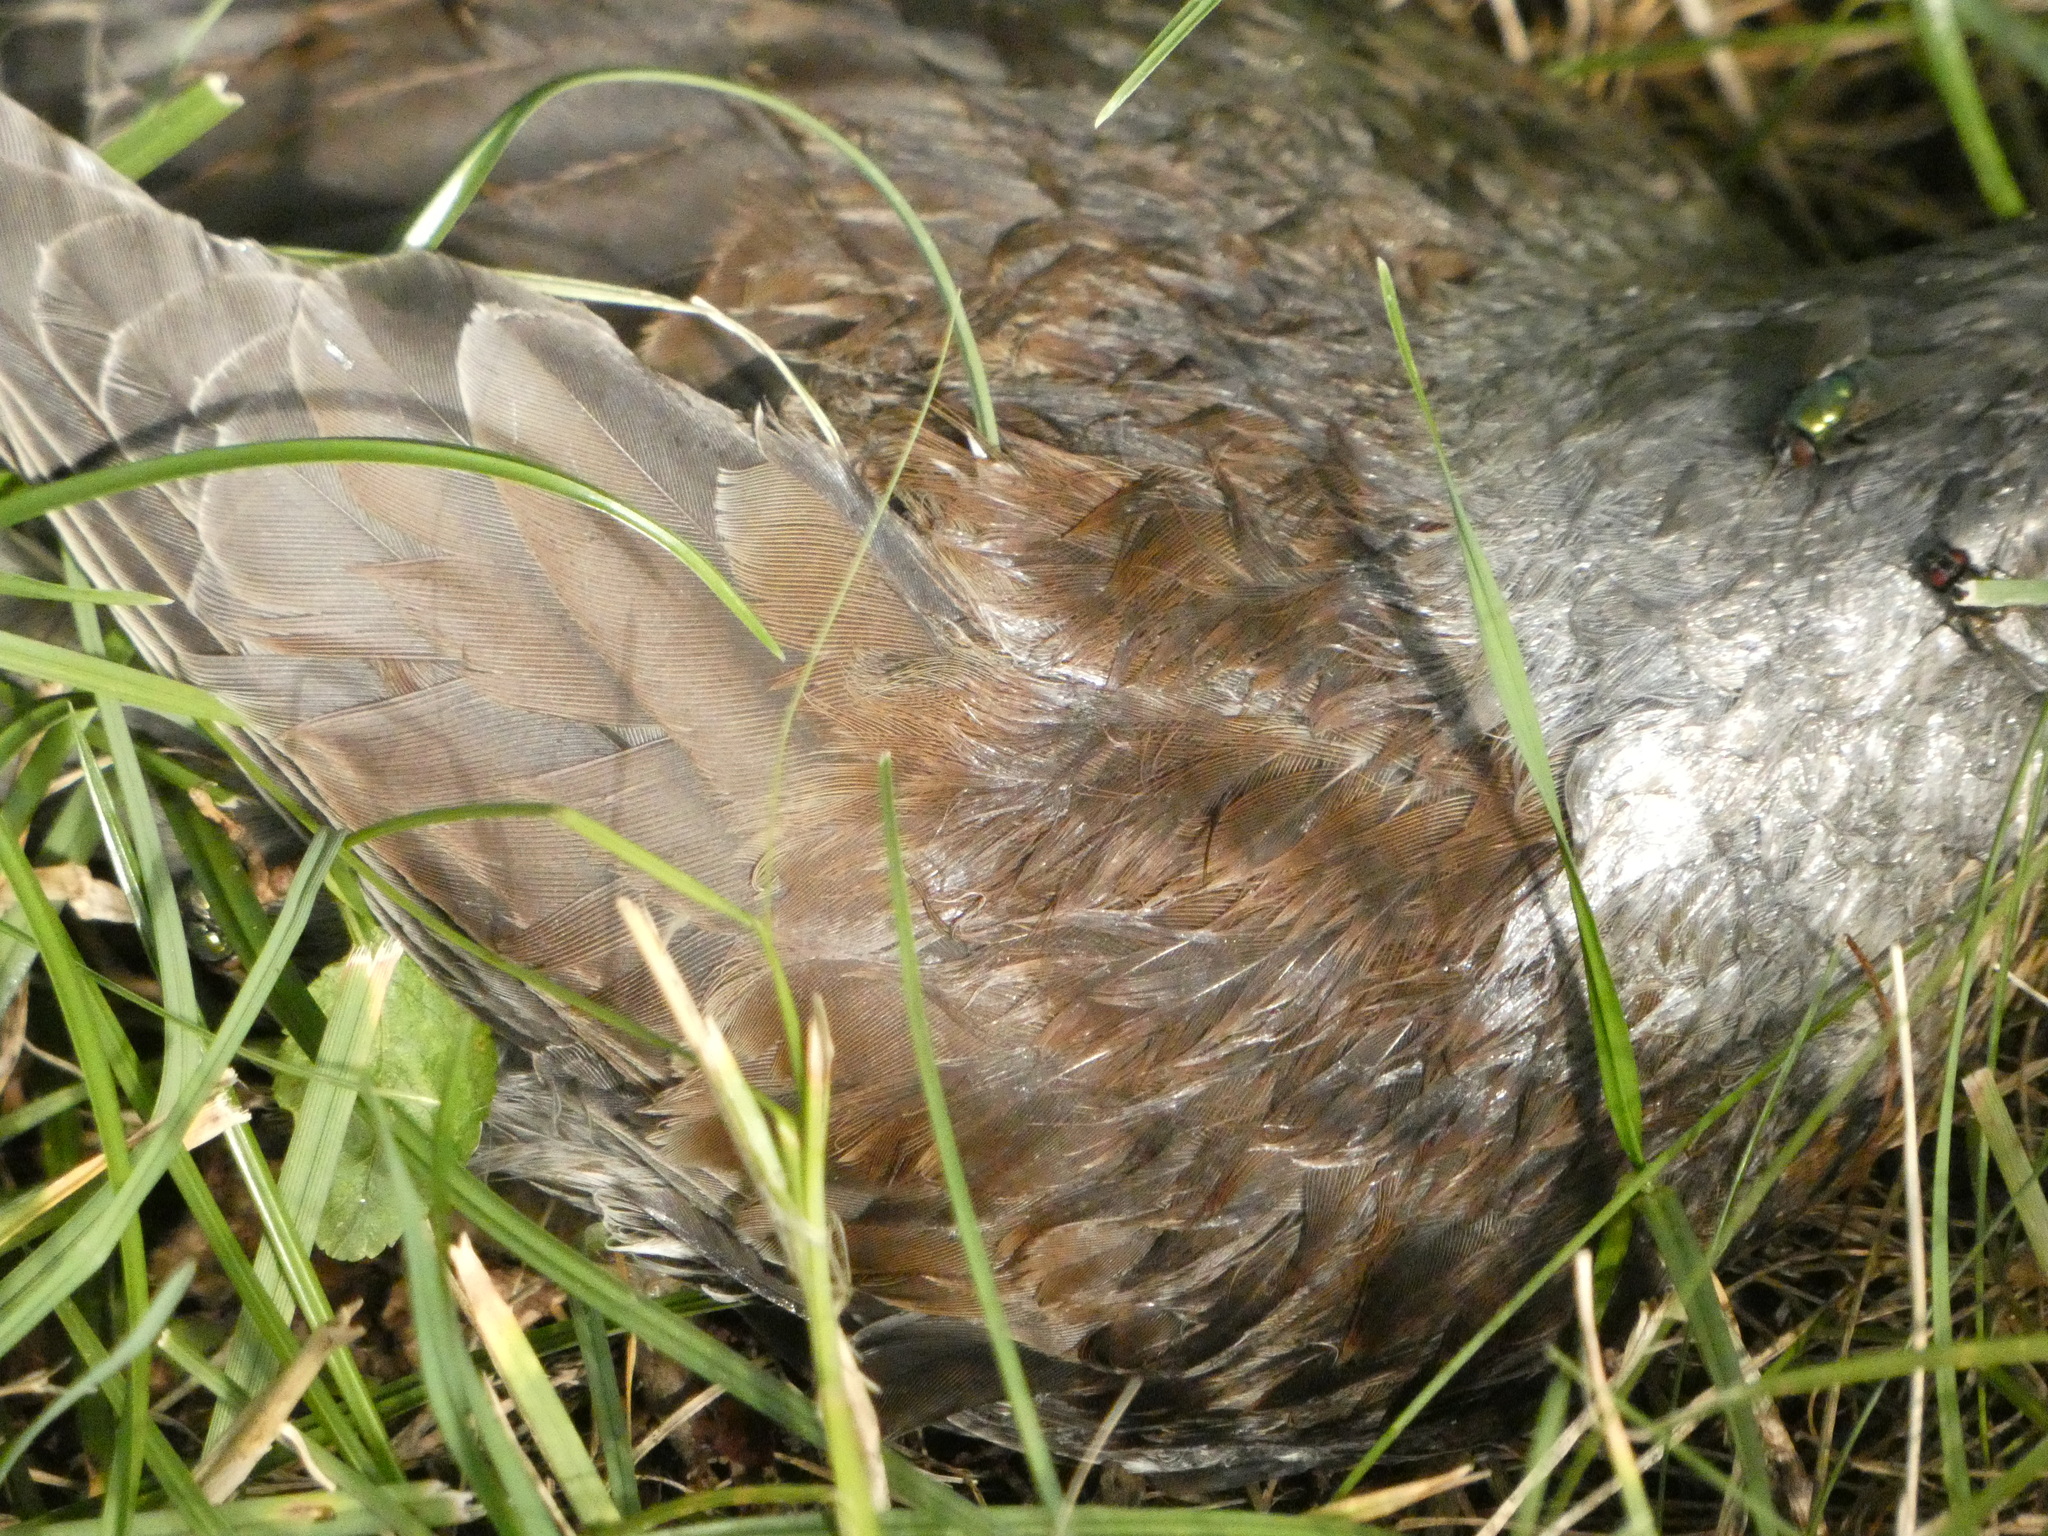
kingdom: Animalia
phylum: Chordata
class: Aves
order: Passeriformes
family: Turdidae
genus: Turdus
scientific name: Turdus pilaris
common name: Fieldfare
